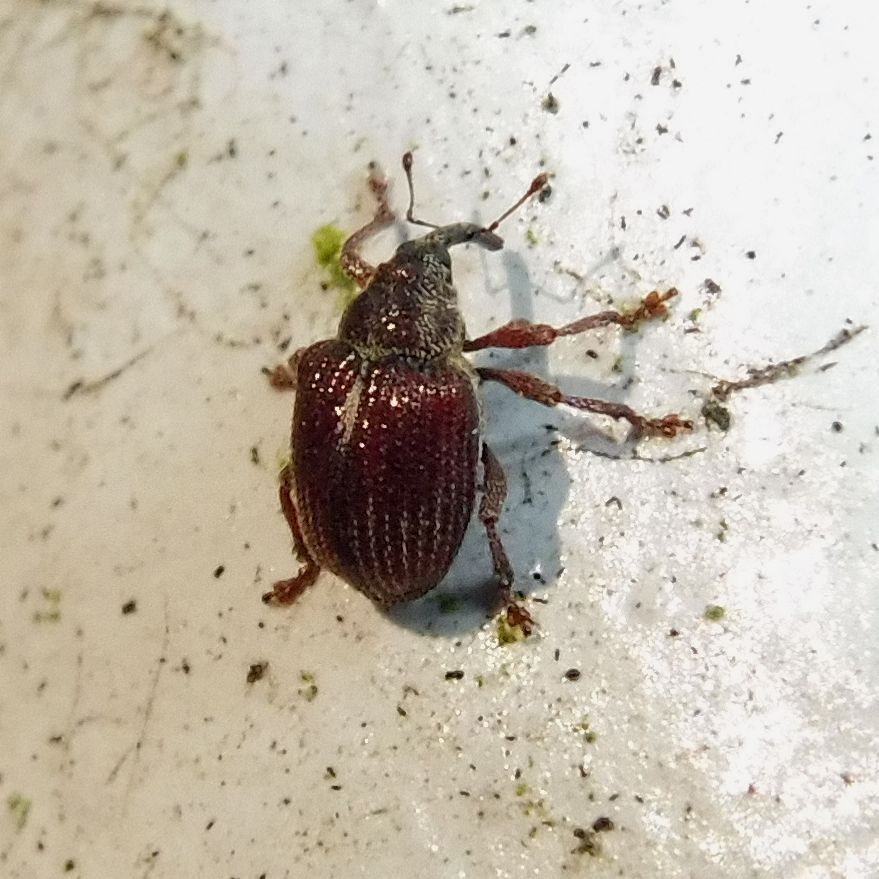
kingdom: Animalia
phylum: Arthropoda
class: Insecta
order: Coleoptera
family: Curculionidae
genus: Coeliodes
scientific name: Coeliodes rubicundus
